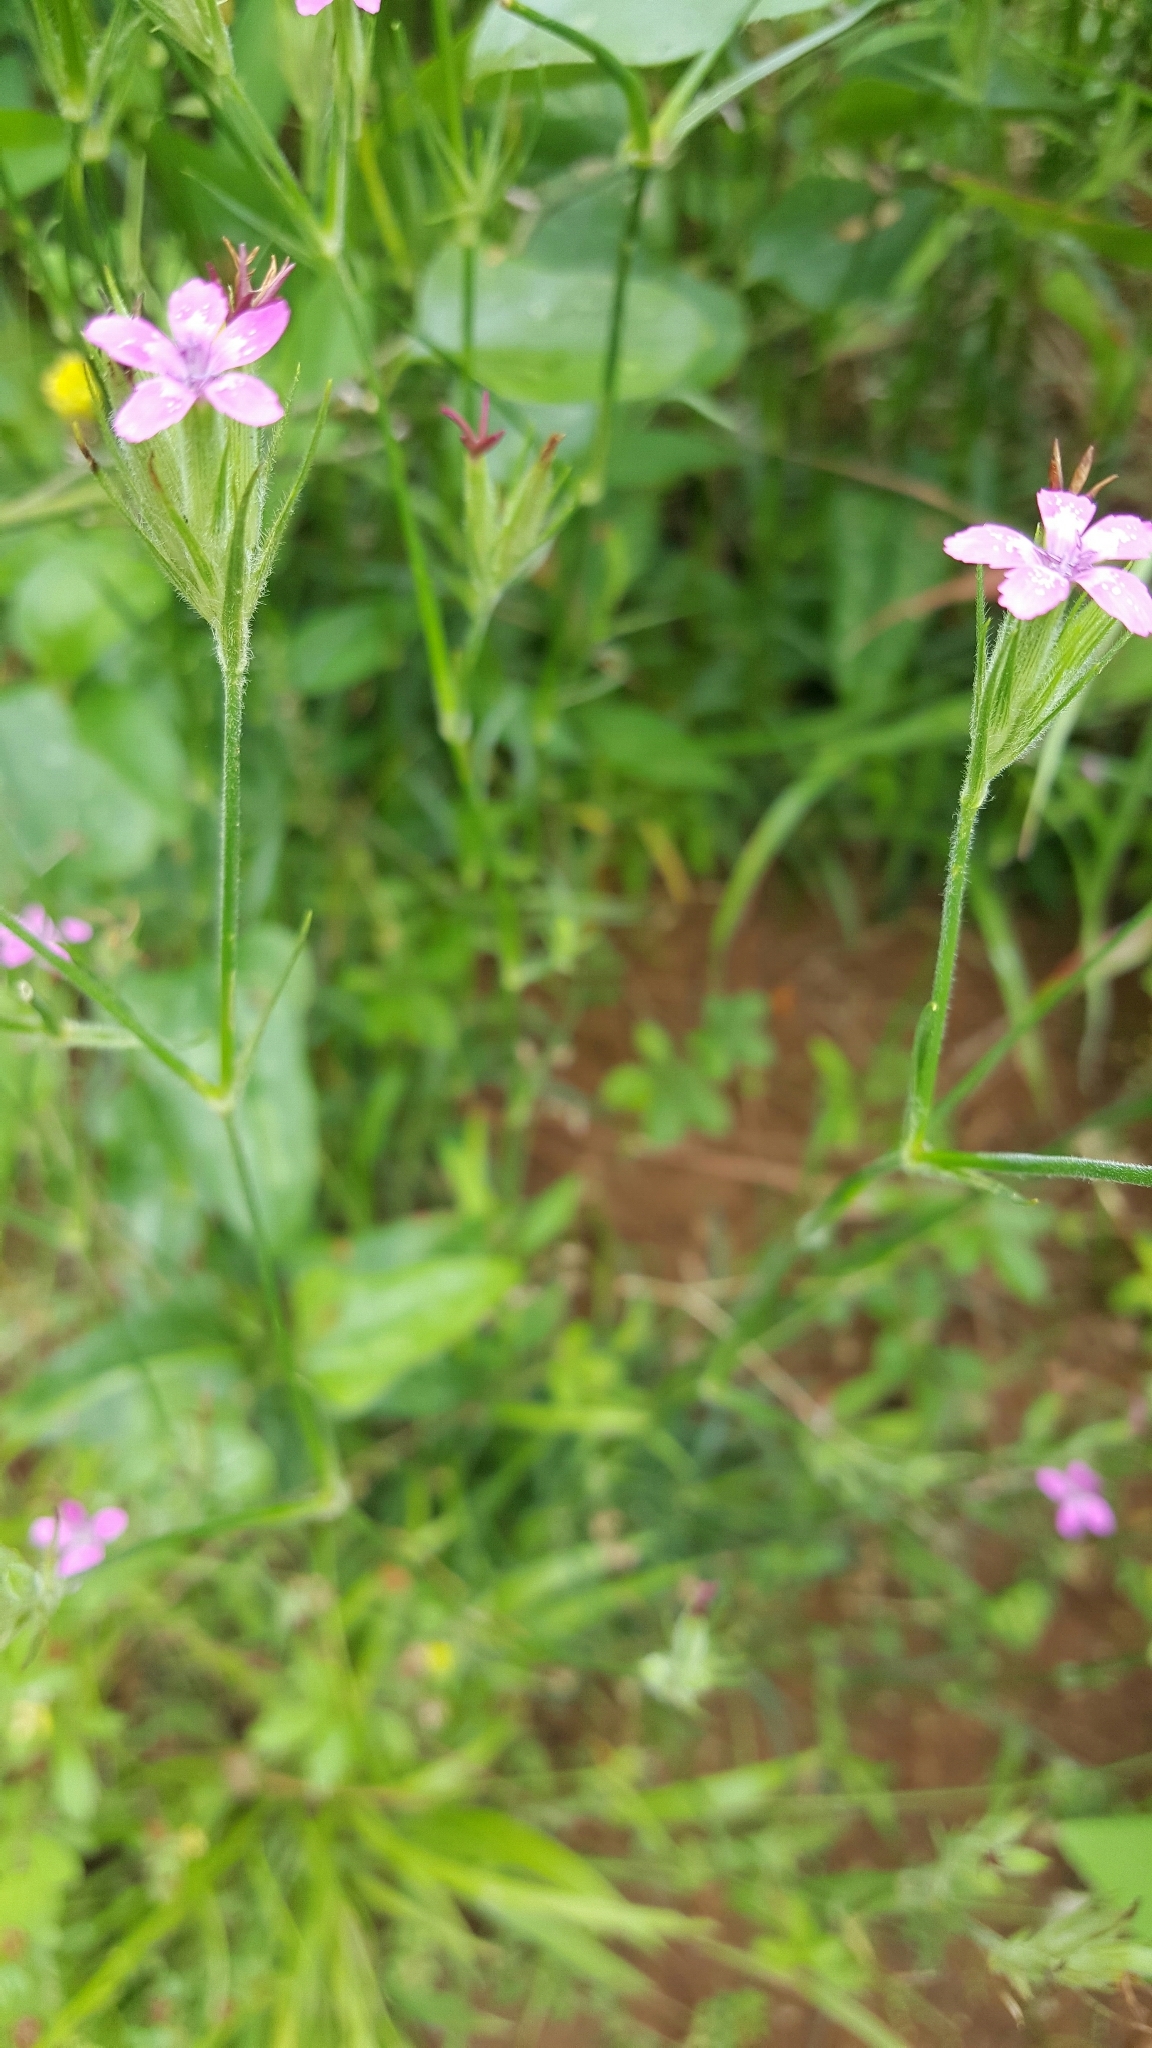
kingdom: Plantae
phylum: Tracheophyta
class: Magnoliopsida
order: Caryophyllales
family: Caryophyllaceae
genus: Dianthus
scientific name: Dianthus armeria
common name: Deptford pink
